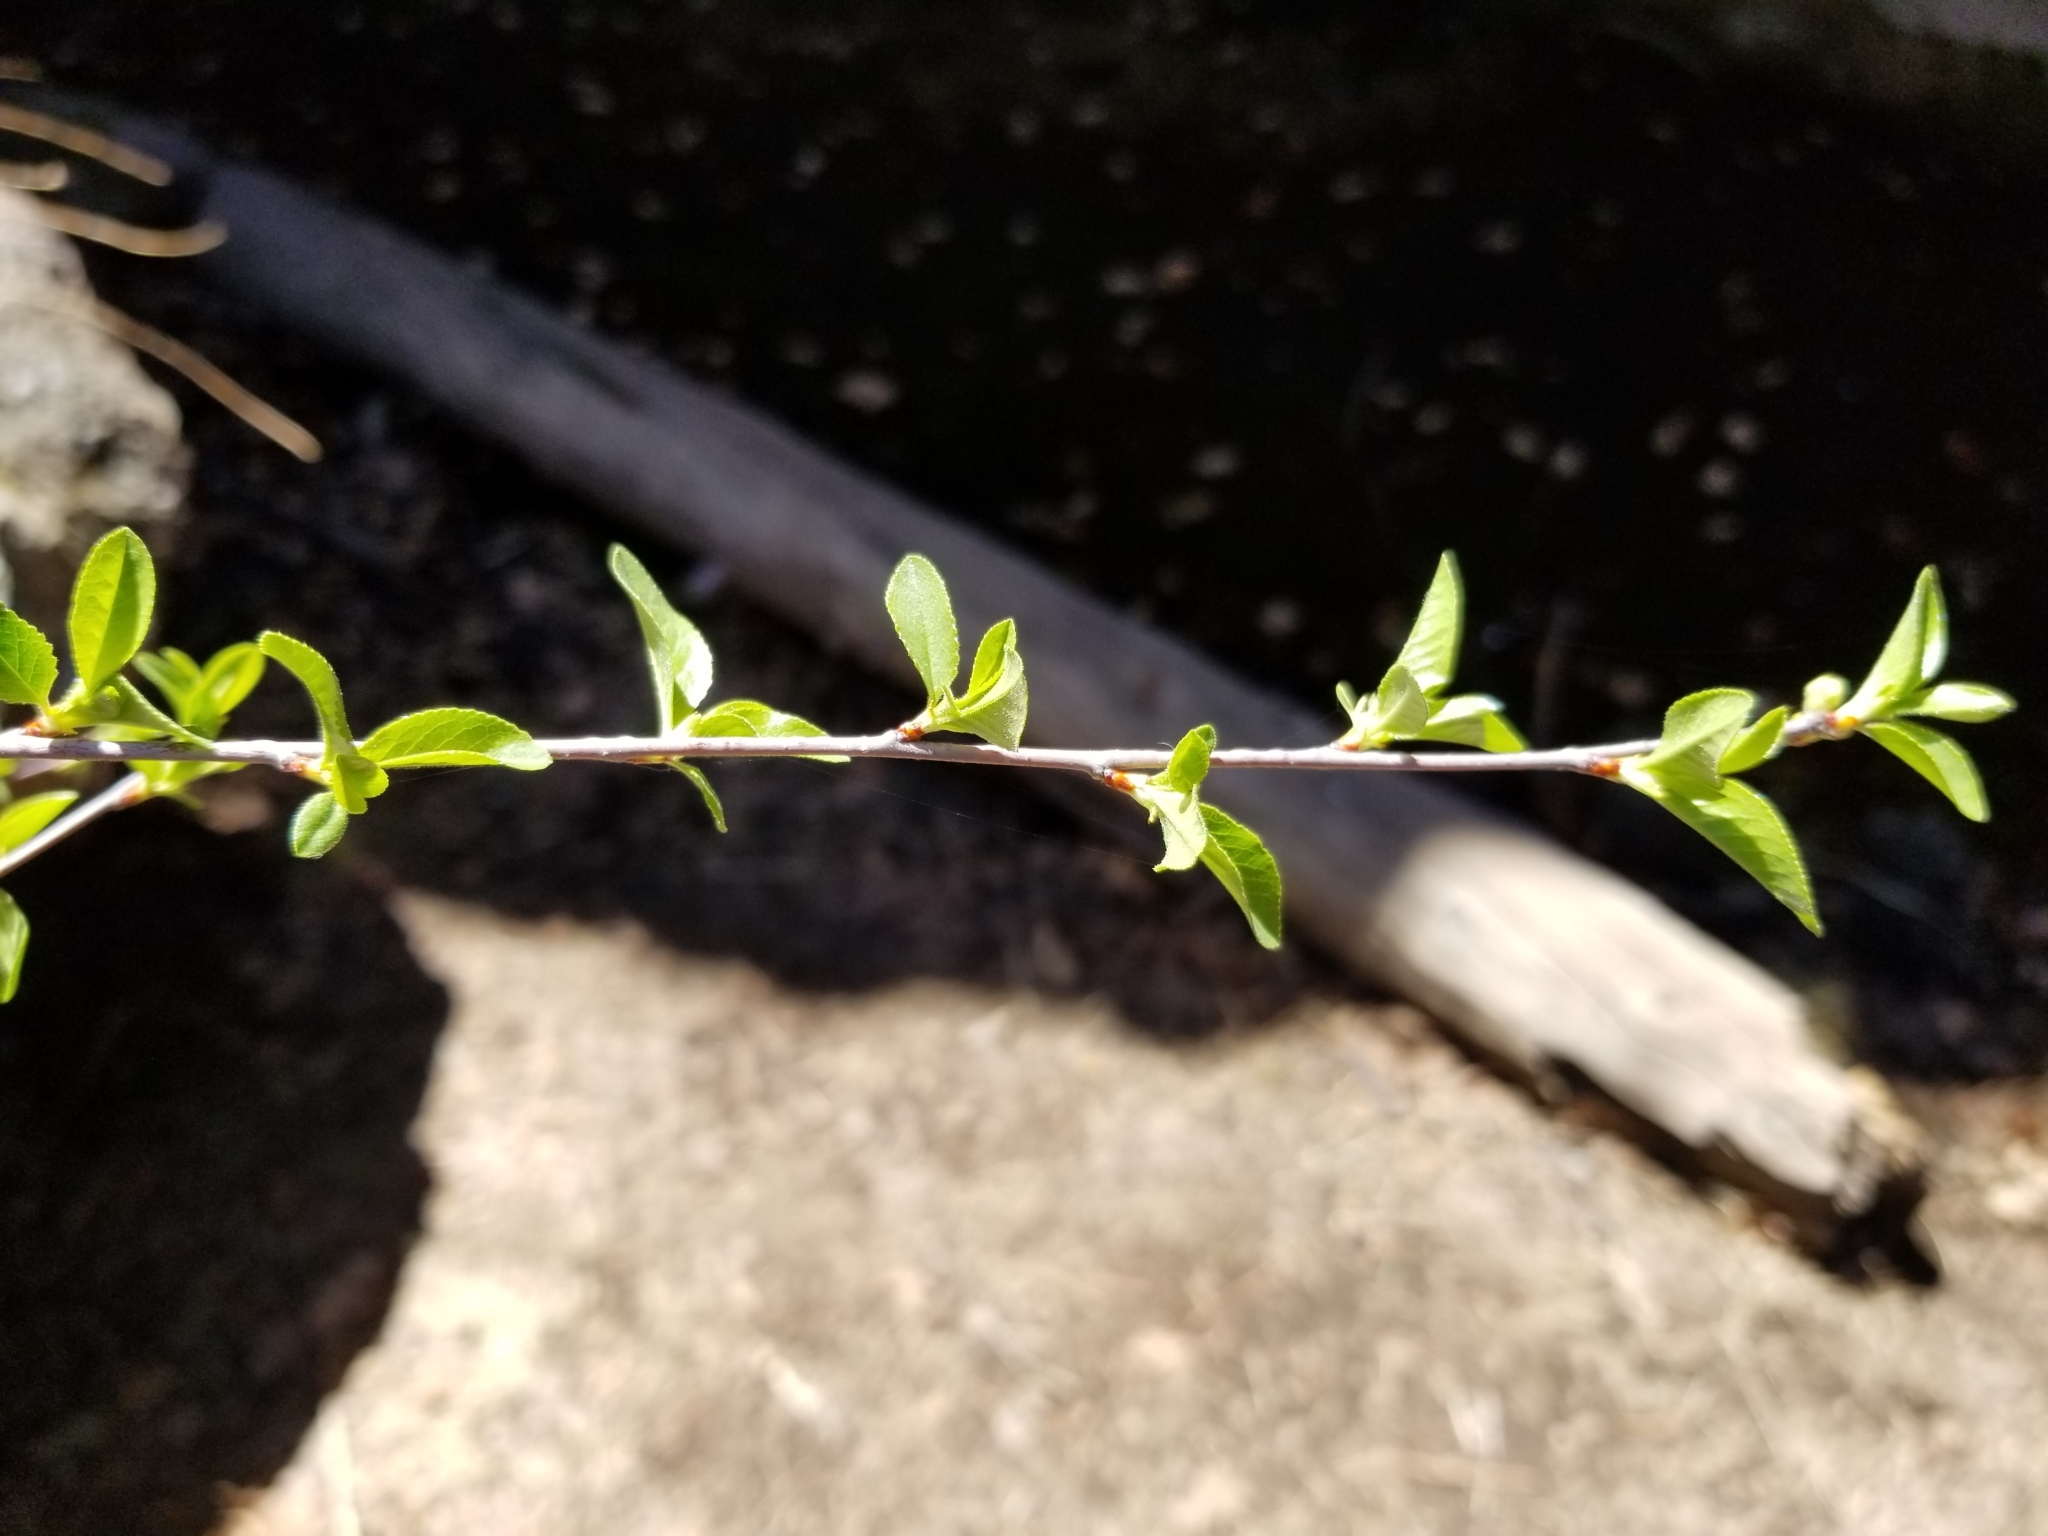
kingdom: Plantae
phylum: Tracheophyta
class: Magnoliopsida
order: Rosales
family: Rosaceae
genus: Prunus
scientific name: Prunus emarginata
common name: Bitter cherry
